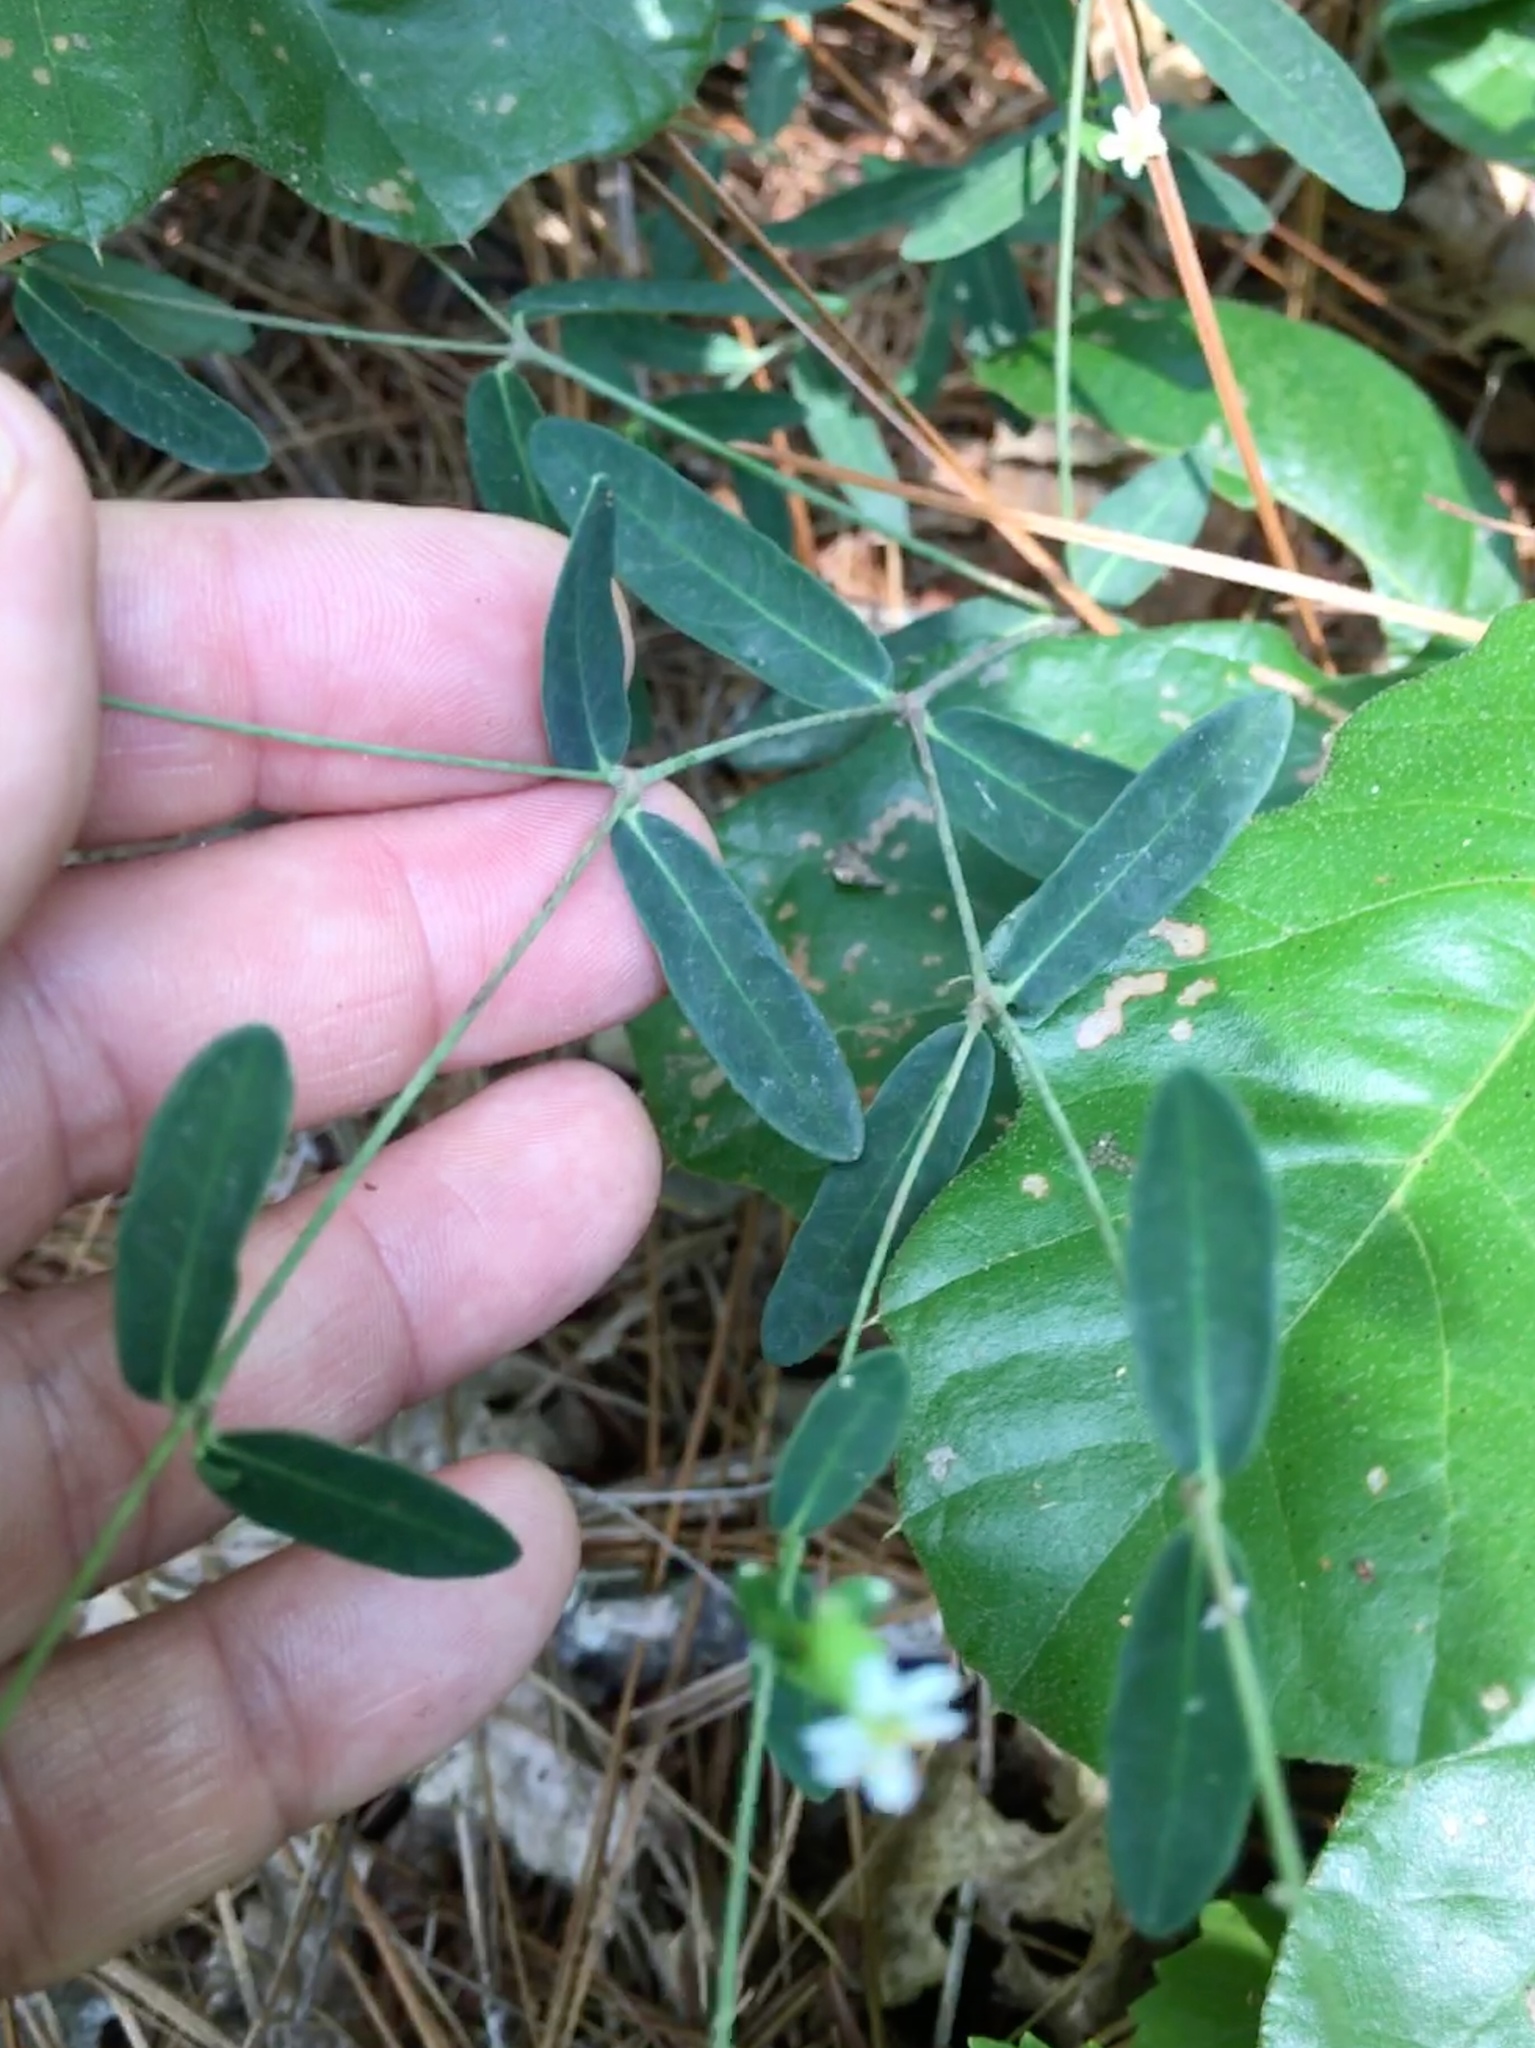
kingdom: Plantae
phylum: Tracheophyta
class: Magnoliopsida
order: Malpighiales
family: Euphorbiaceae
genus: Euphorbia
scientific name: Euphorbia corollata
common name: Flowering spurge
